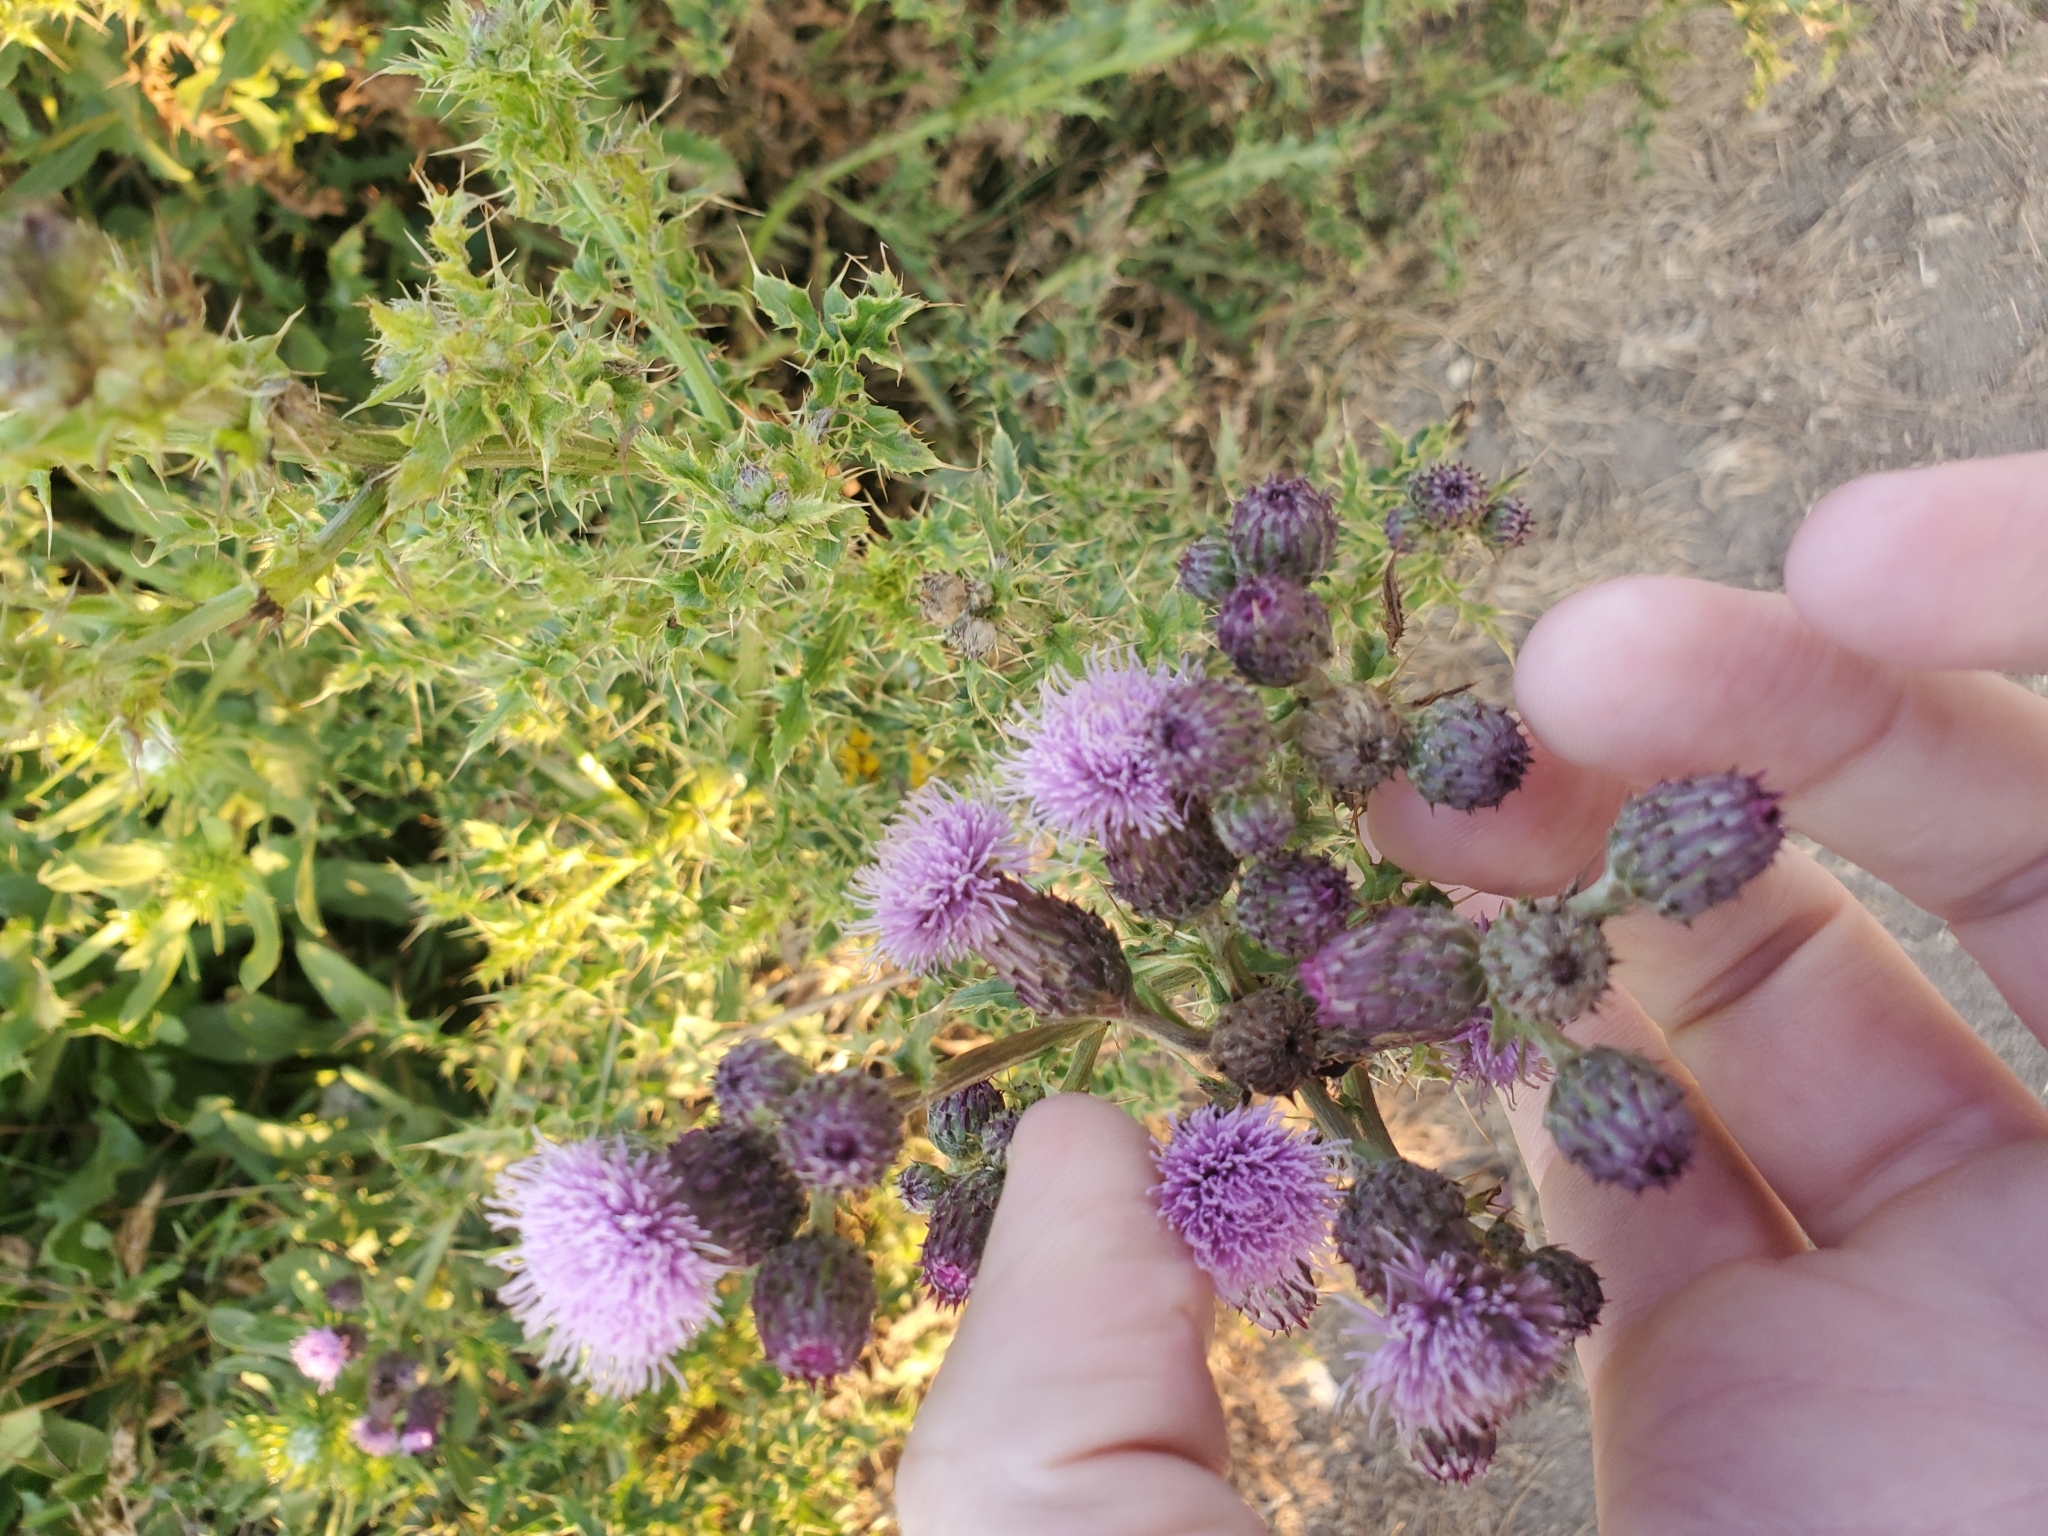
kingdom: Plantae
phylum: Tracheophyta
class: Magnoliopsida
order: Asterales
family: Asteraceae
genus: Cirsium
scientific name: Cirsium arvense
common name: Creeping thistle
